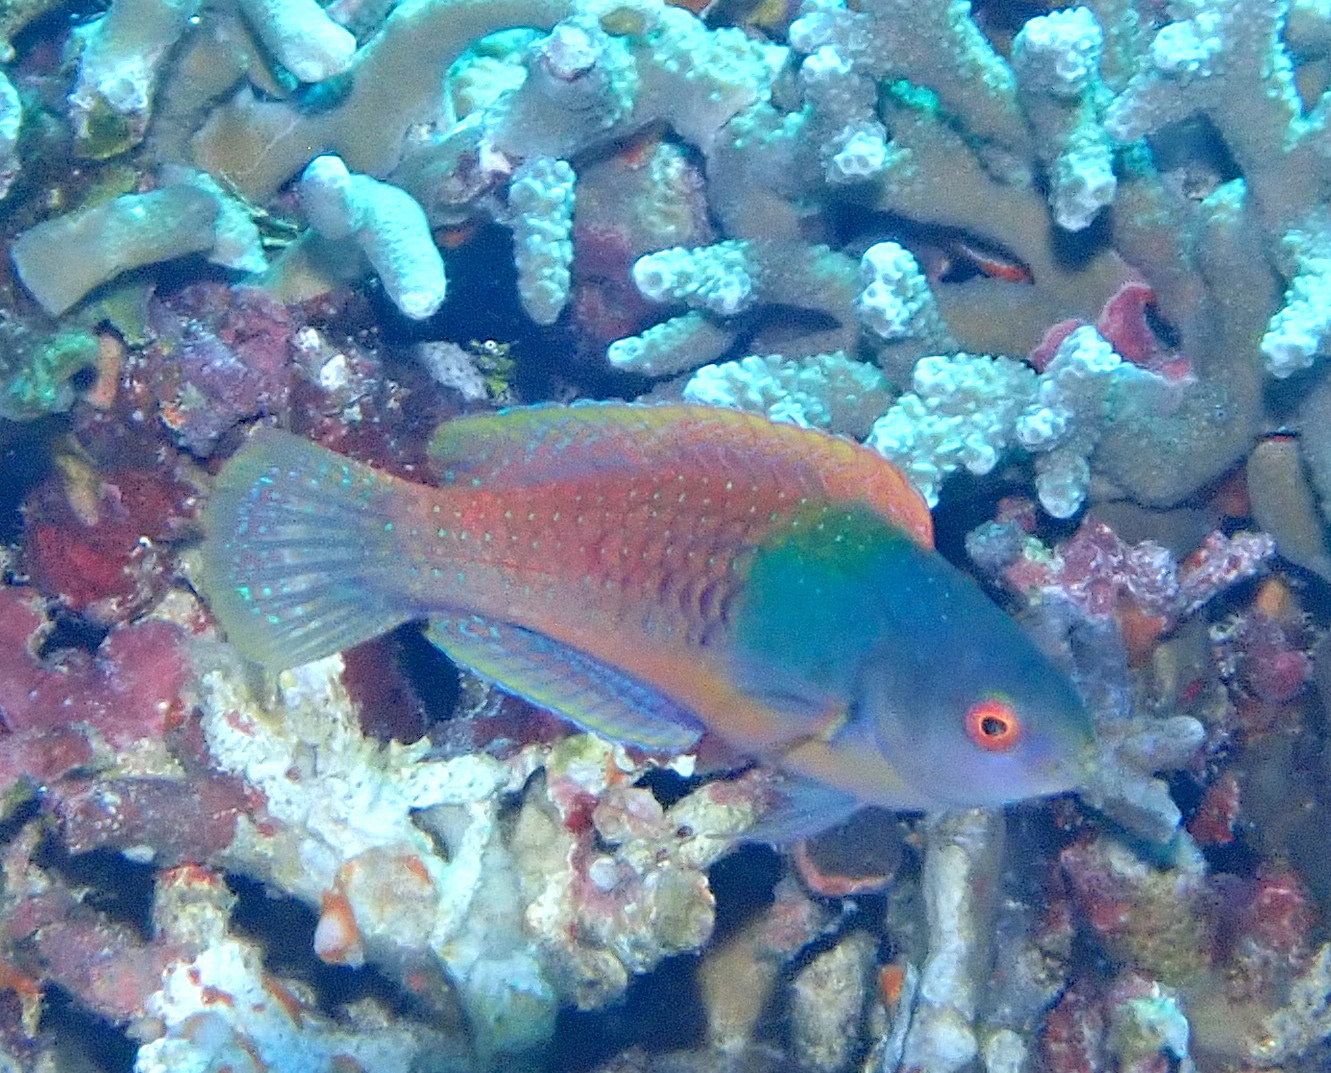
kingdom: Animalia
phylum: Chordata
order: Perciformes
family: Labridae
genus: Cirrhilabrus
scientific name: Cirrhilabrus cyanopleura
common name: Coralline wrasse
